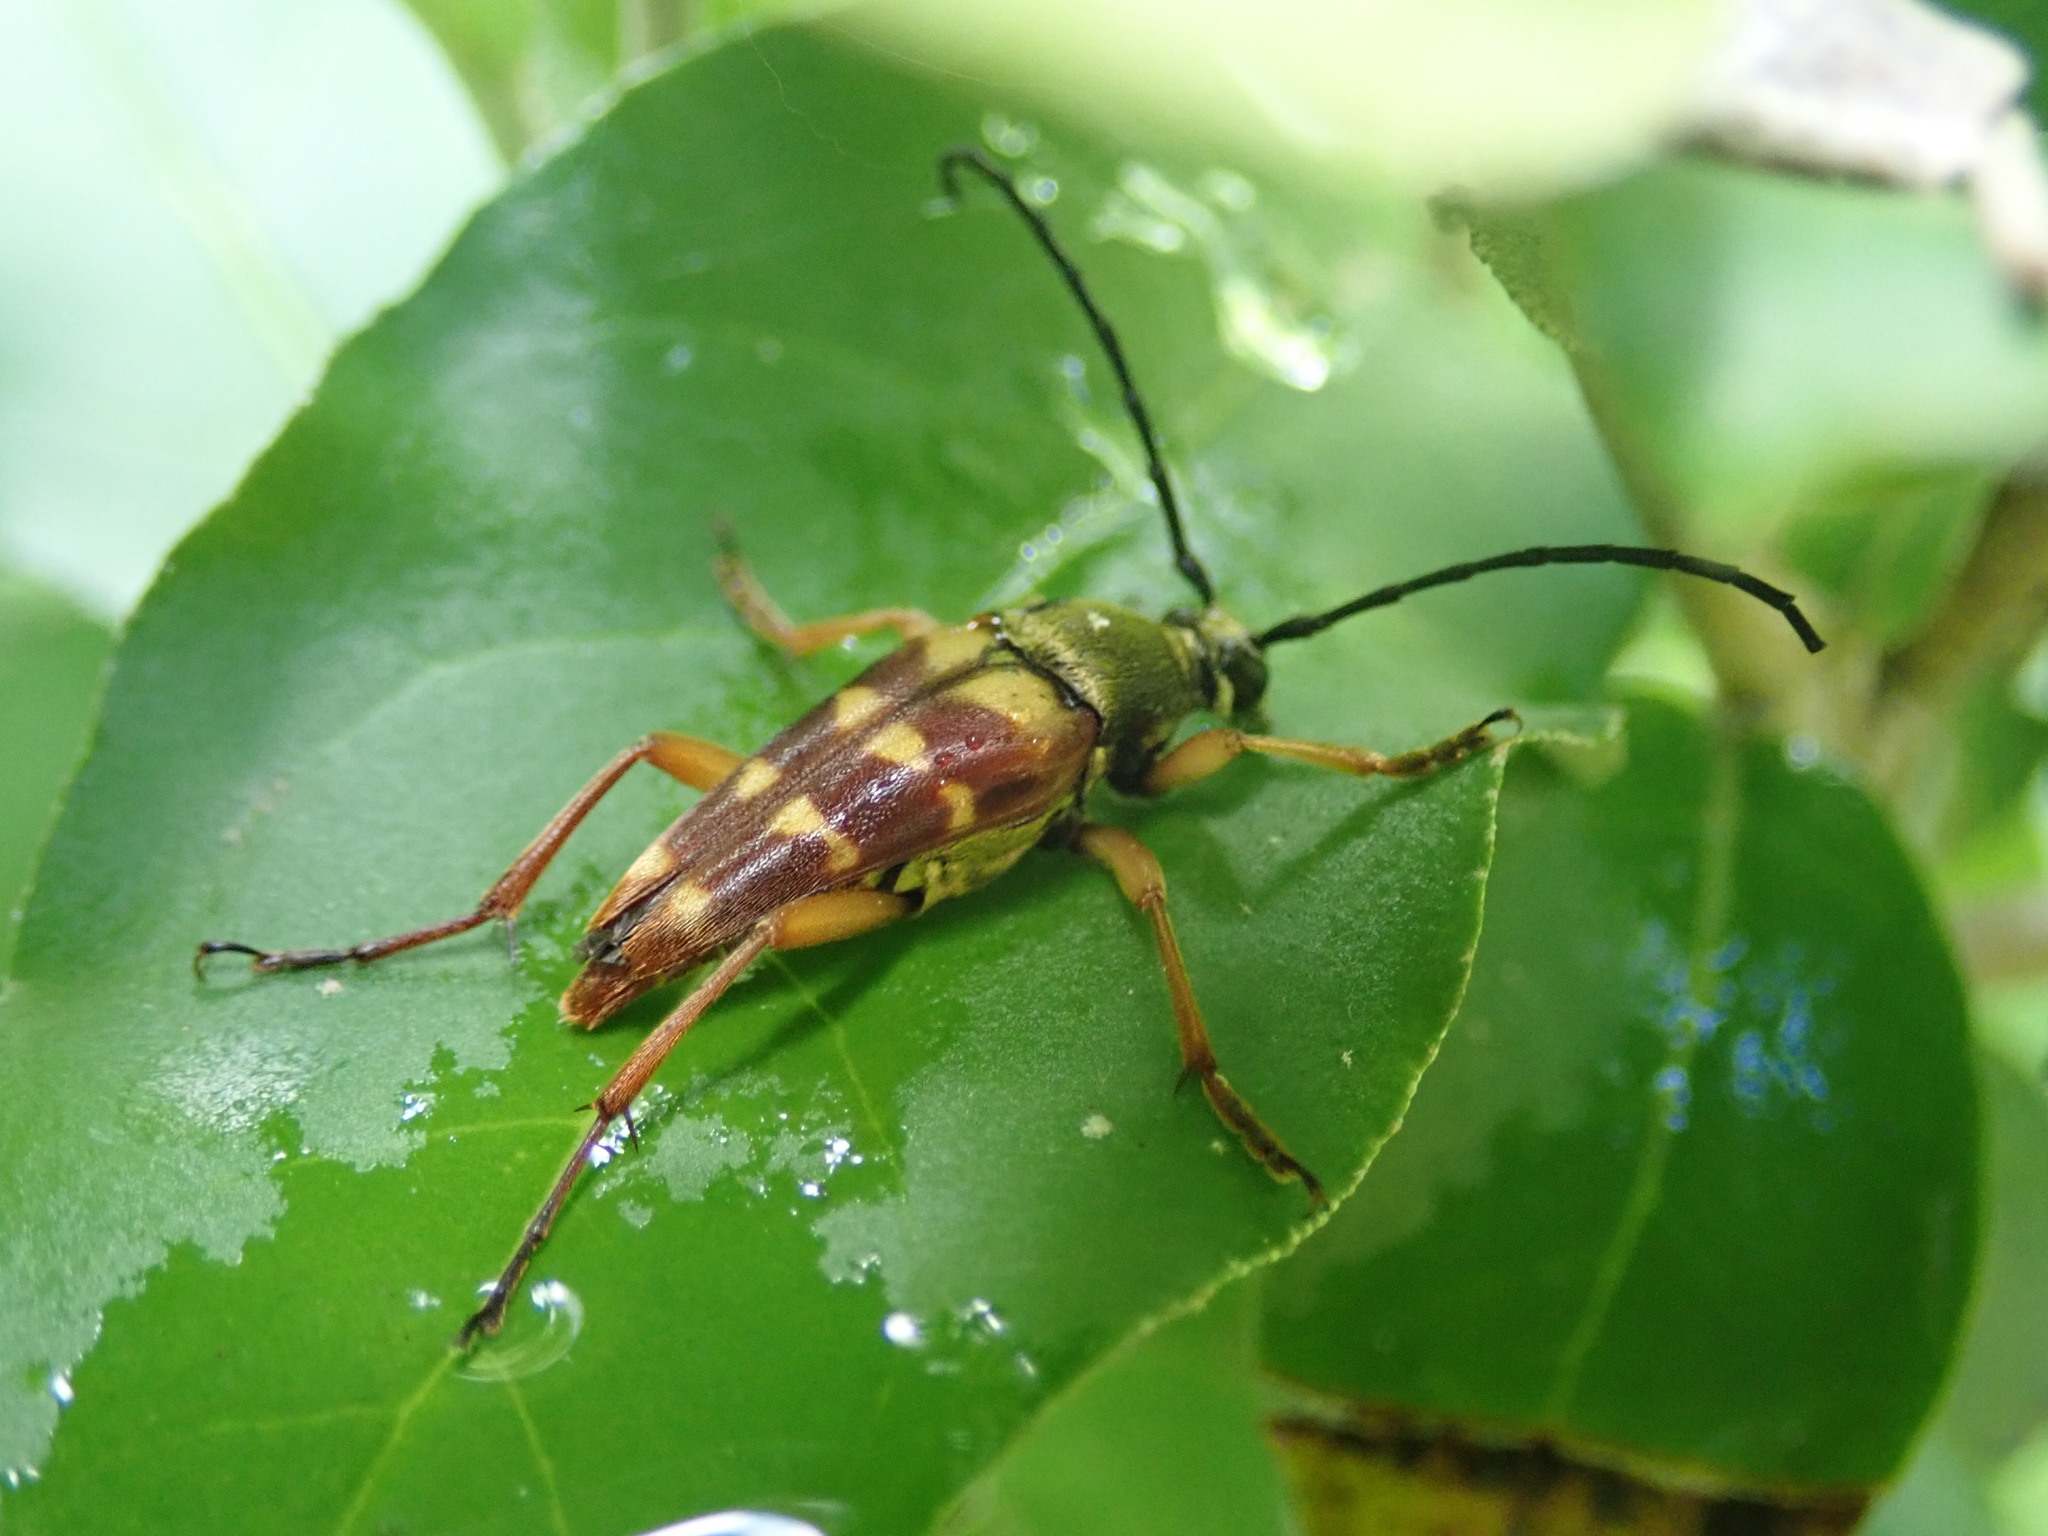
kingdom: Animalia
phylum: Arthropoda
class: Insecta
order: Coleoptera
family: Cerambycidae
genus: Typocerus
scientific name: Typocerus velutinus
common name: Banded longhorn beetle
